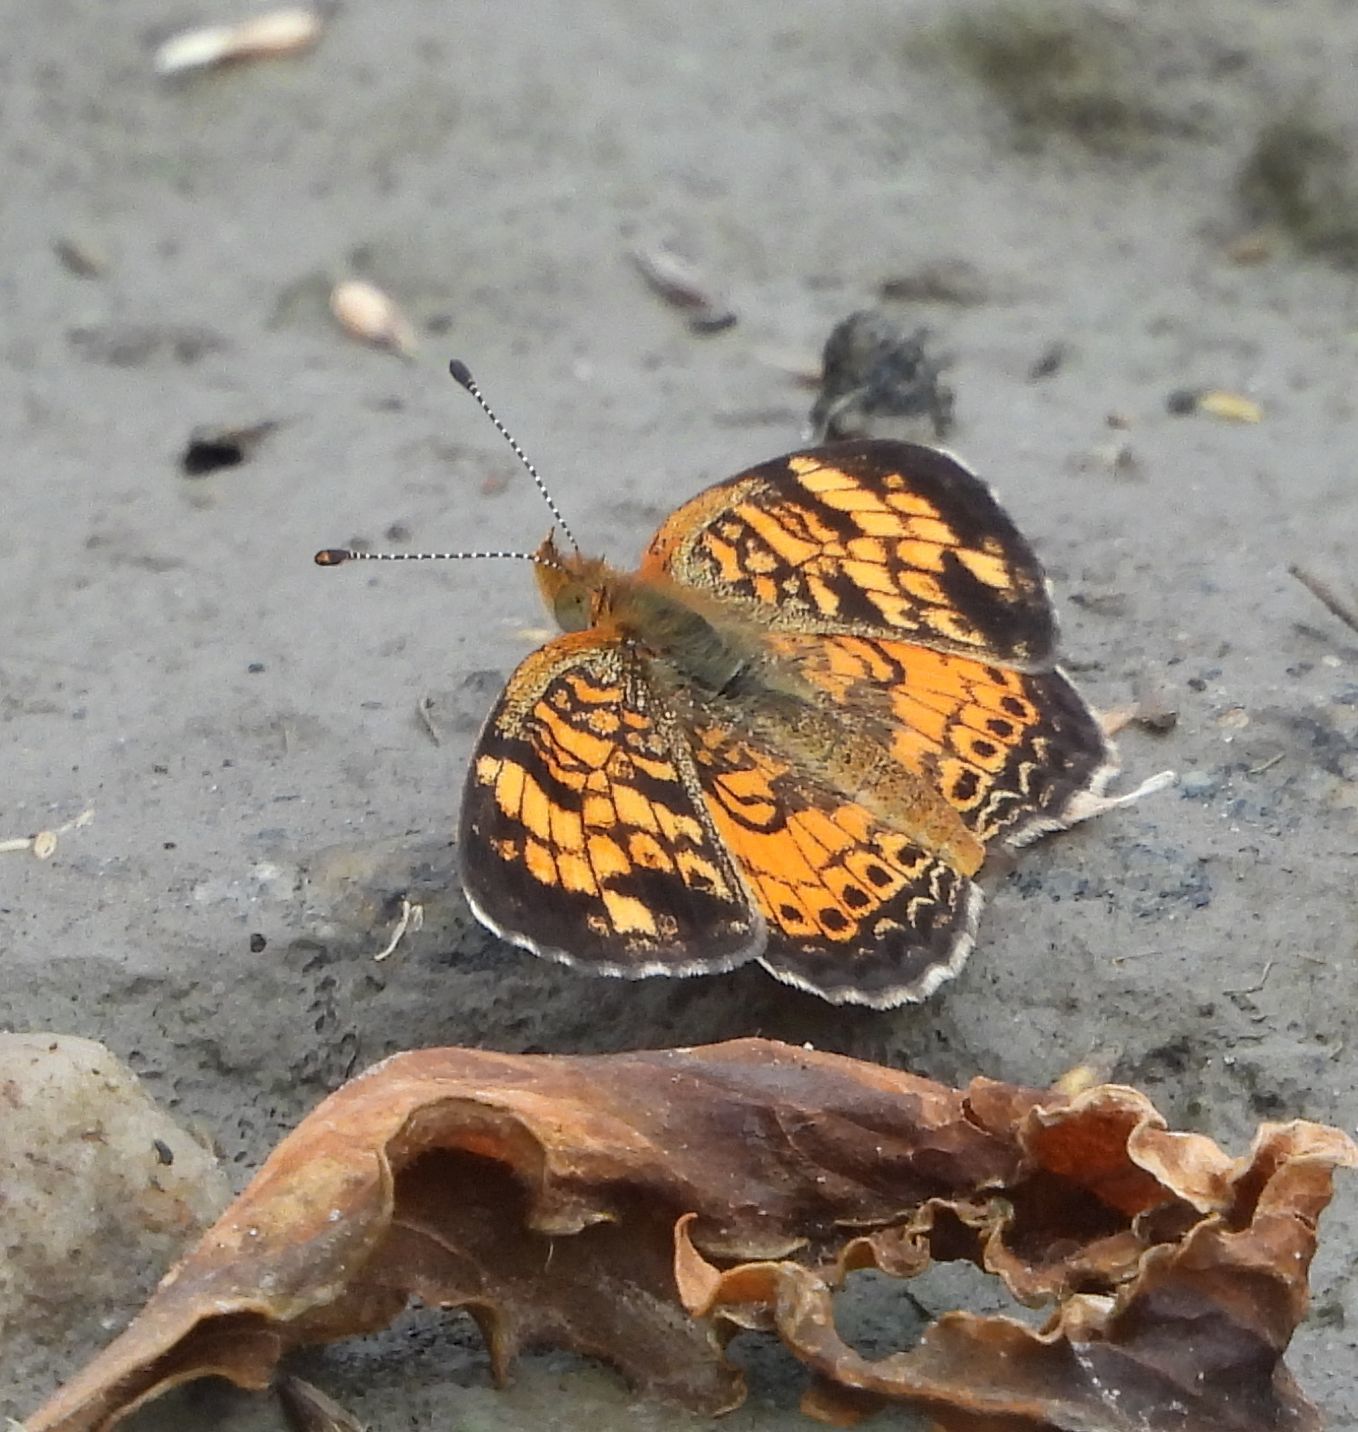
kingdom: Animalia
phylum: Arthropoda
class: Insecta
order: Lepidoptera
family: Nymphalidae
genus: Phyciodes
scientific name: Phyciodes tharos
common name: Pearl crescent
